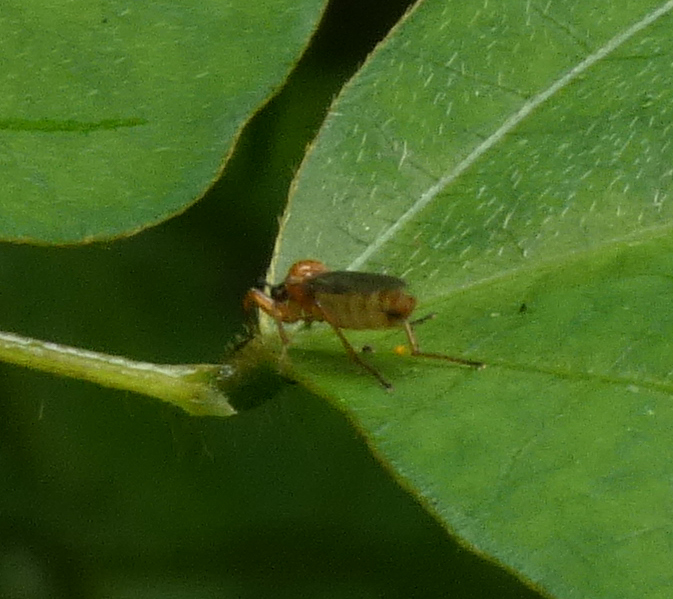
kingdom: Animalia
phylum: Arthropoda
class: Insecta
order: Diptera
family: Bibionidae
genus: Bibio
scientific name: Bibio townesi
